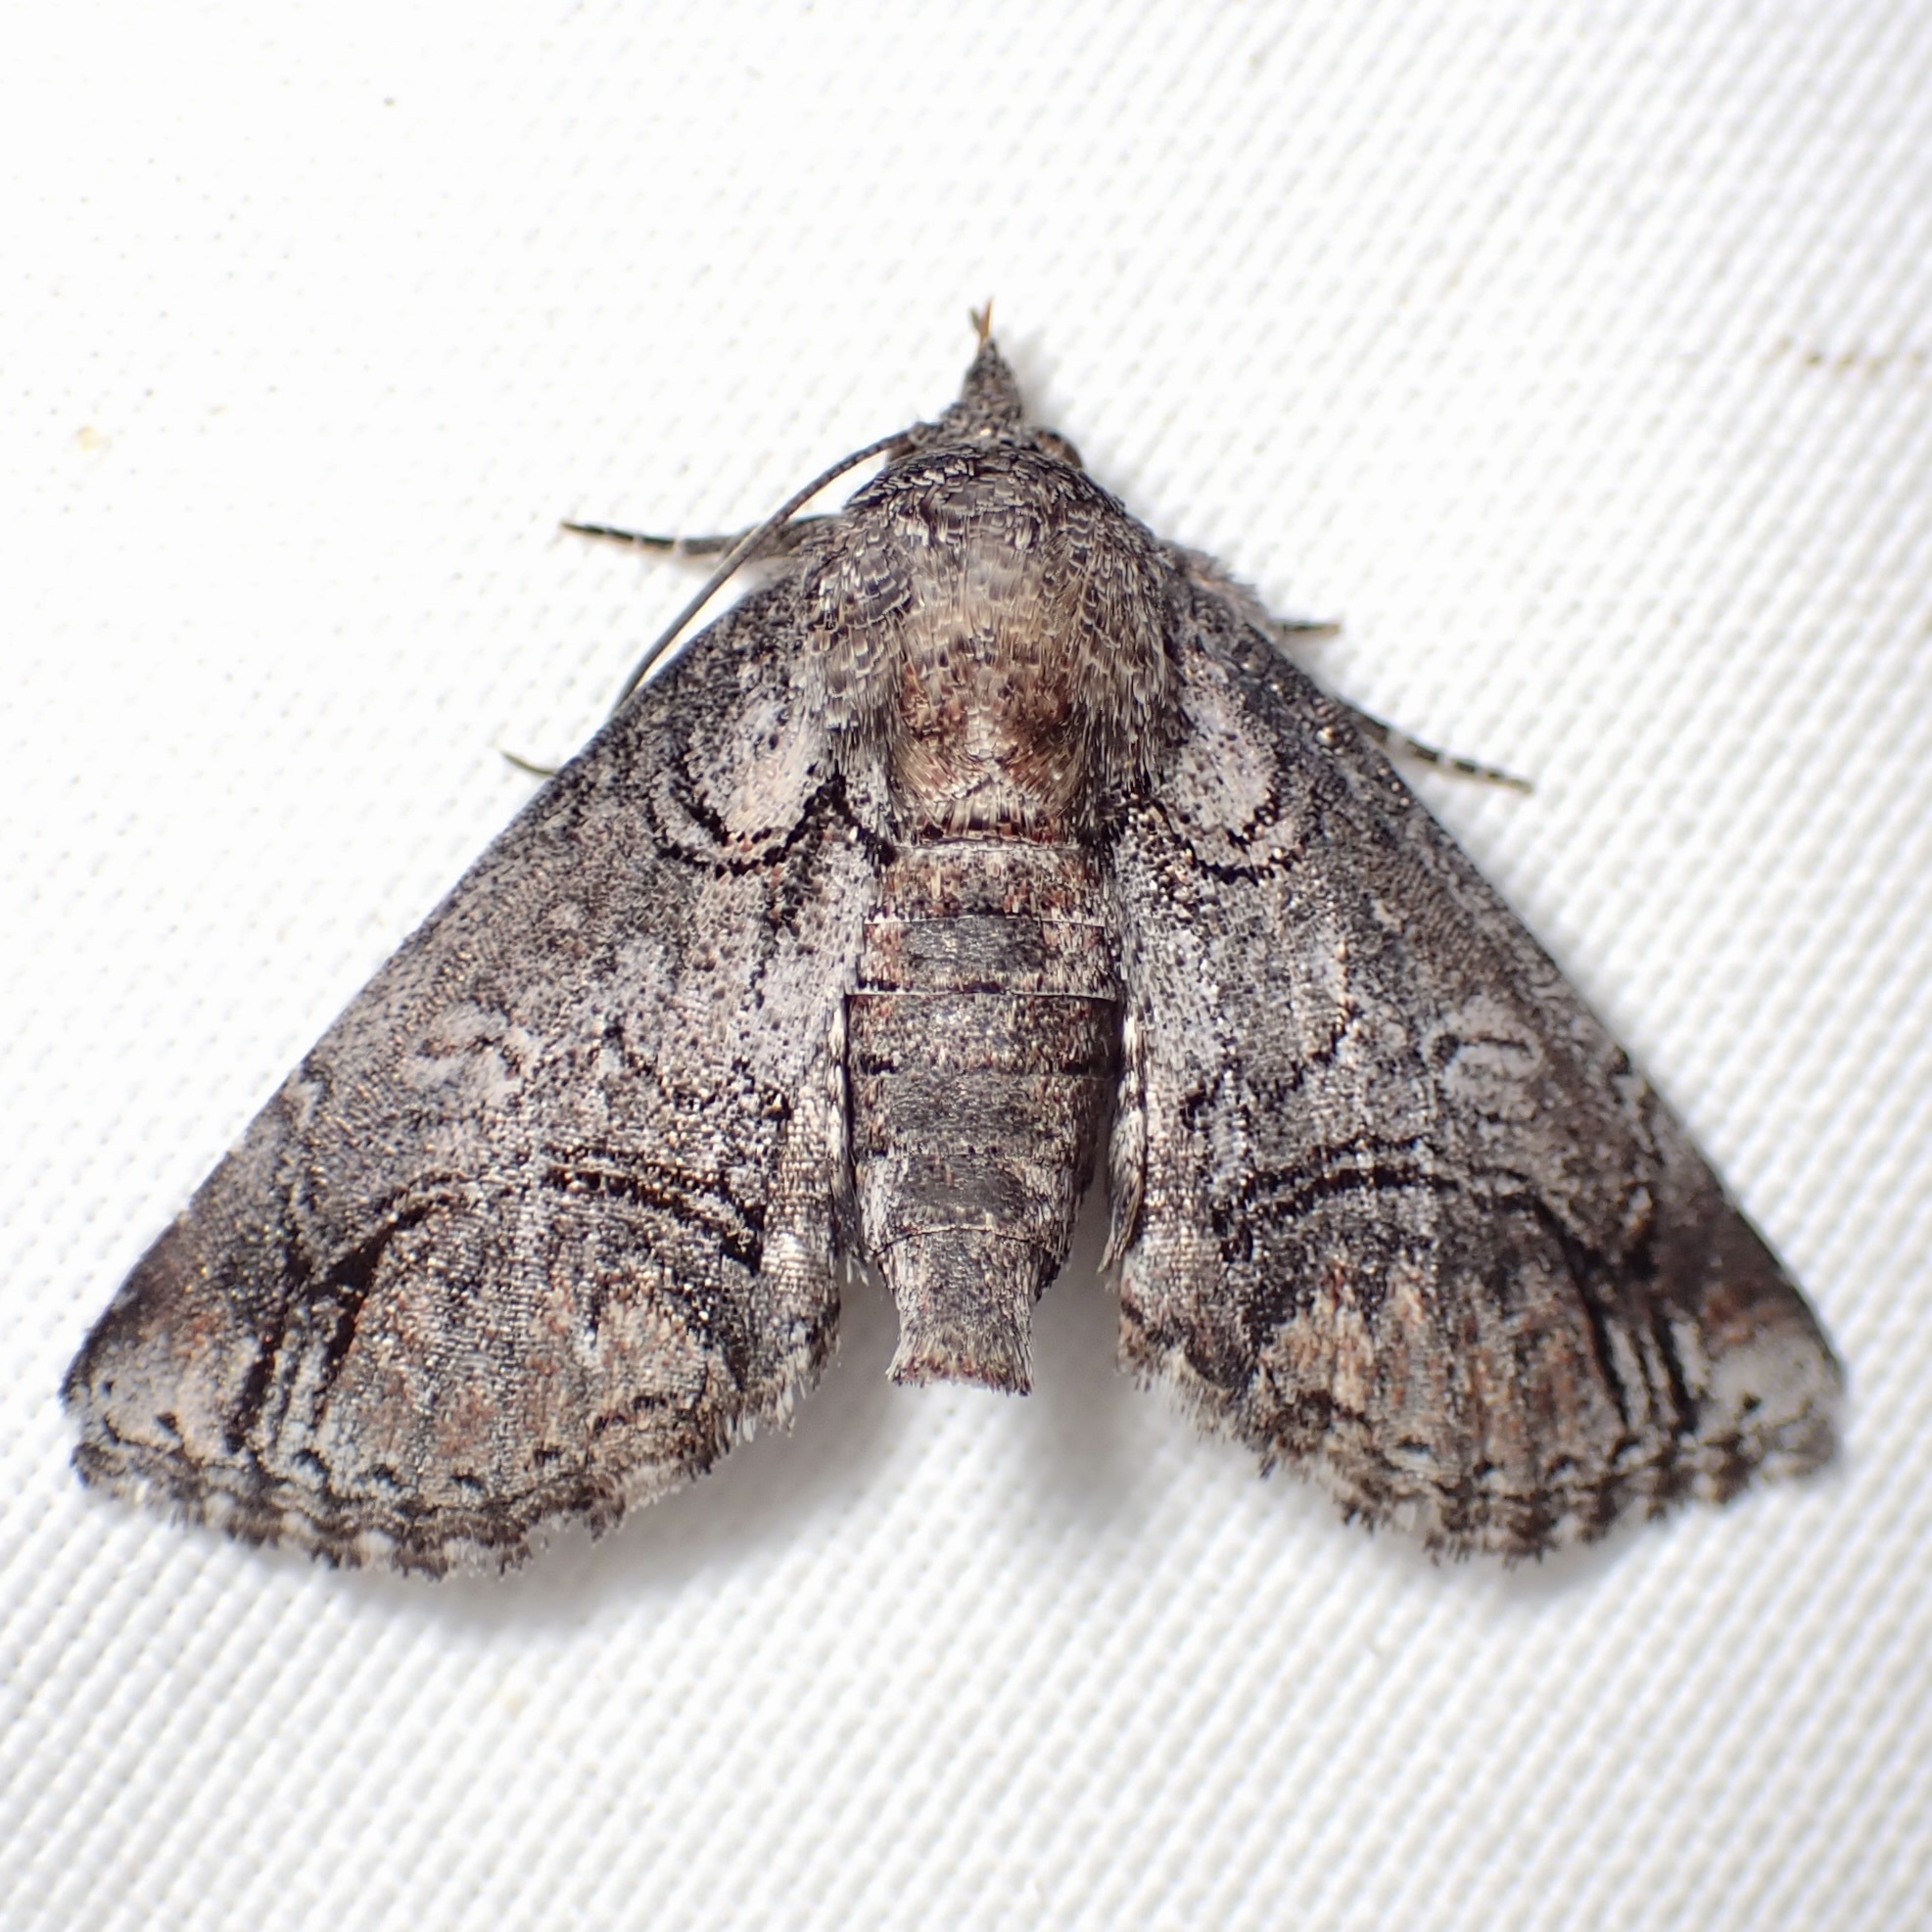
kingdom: Animalia
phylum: Arthropoda
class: Insecta
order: Lepidoptera
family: Euteliidae
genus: Paectes
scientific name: Paectes abrostolella
